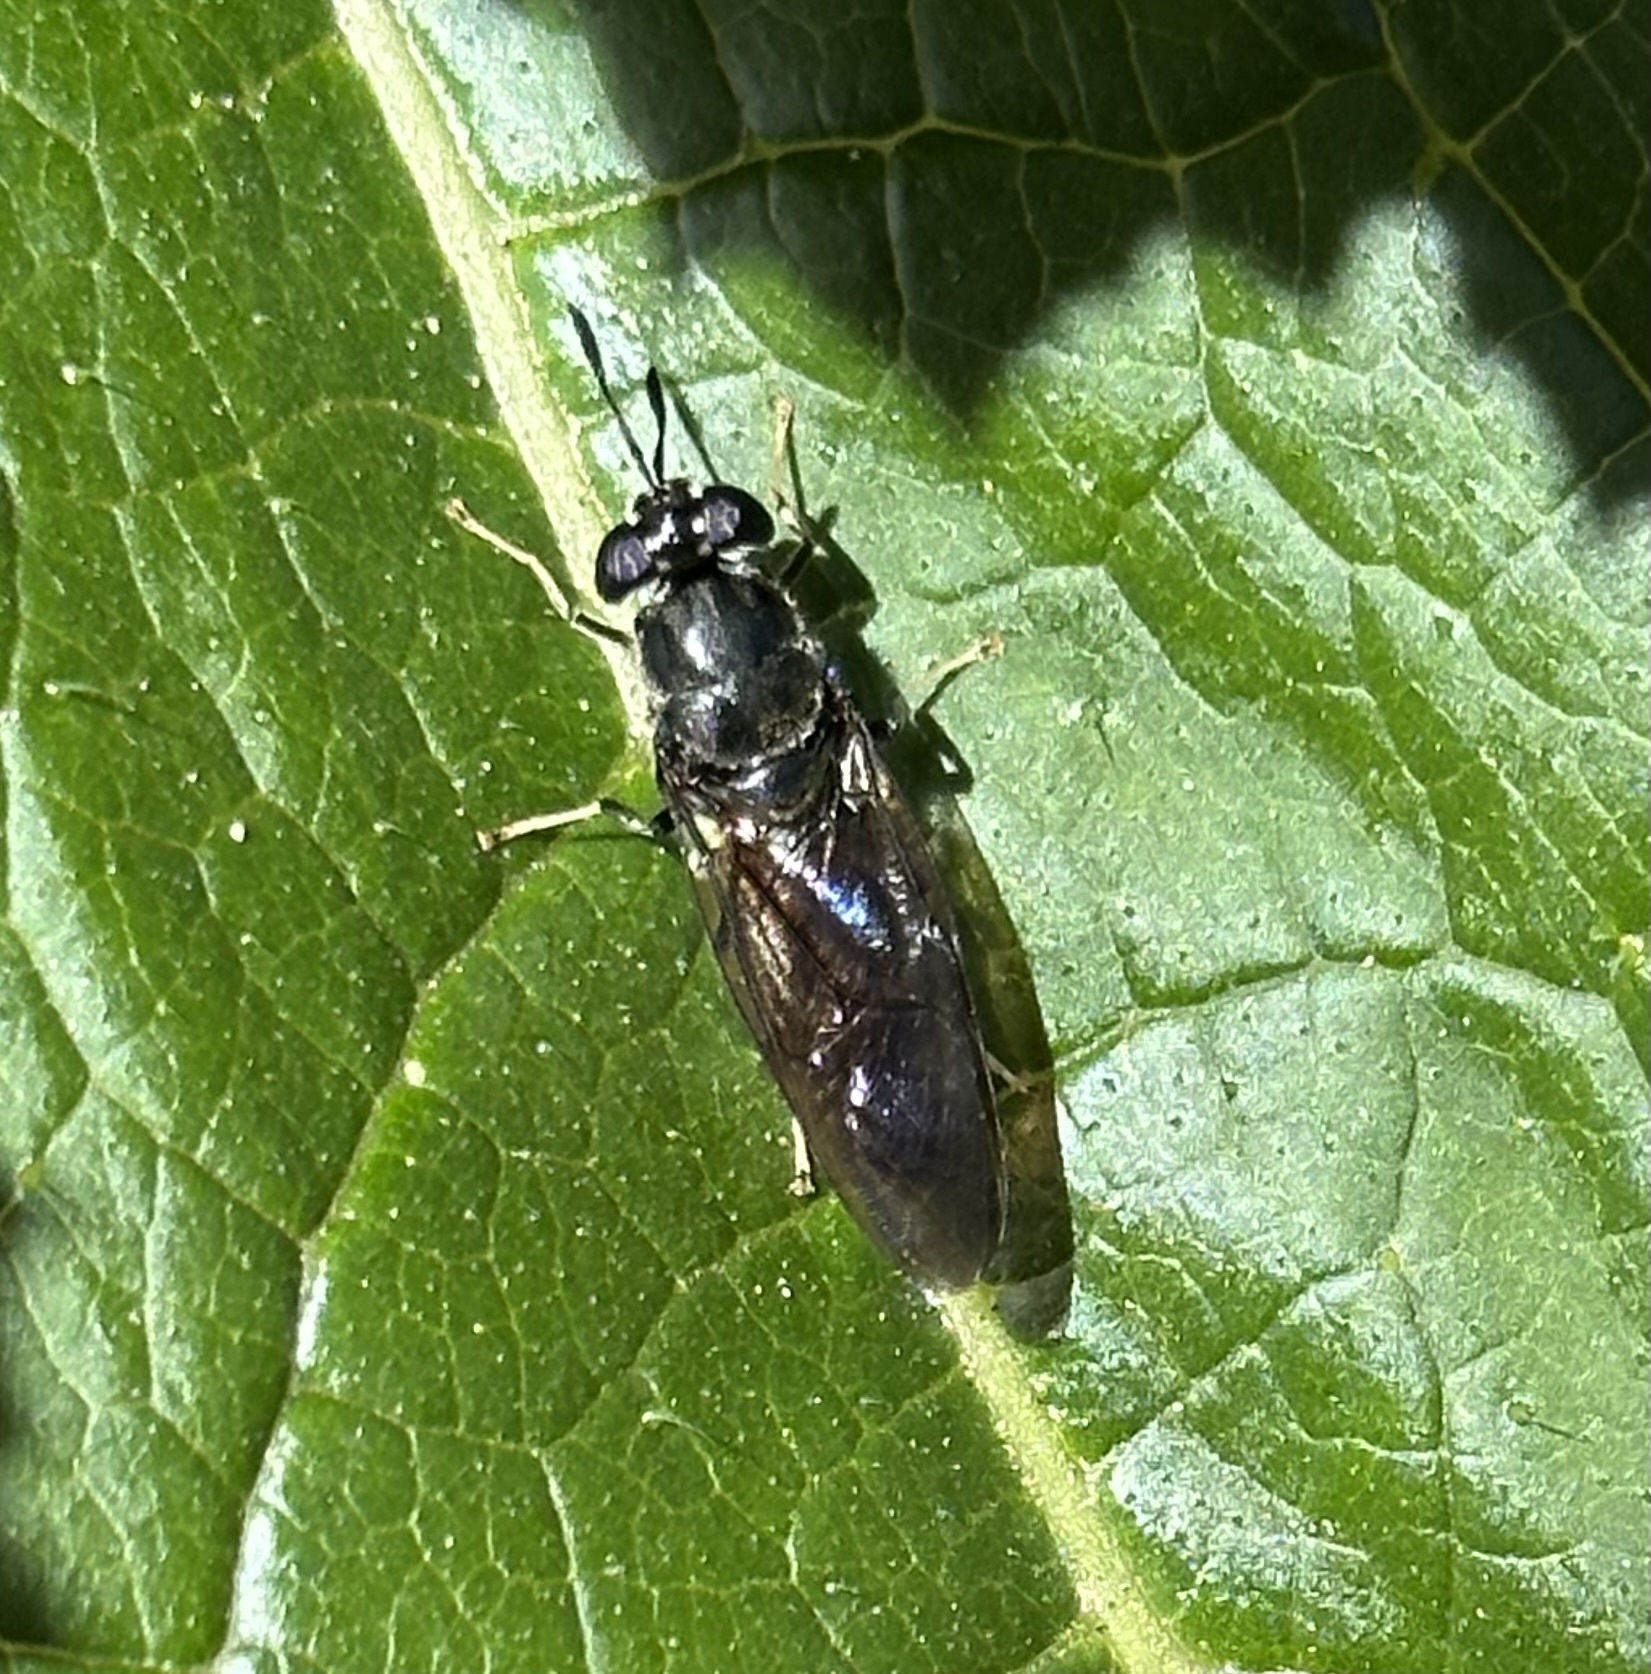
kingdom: Animalia
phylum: Arthropoda
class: Insecta
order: Diptera
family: Stratiomyidae
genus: Hermetia
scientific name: Hermetia illucens
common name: Black soldier fly
